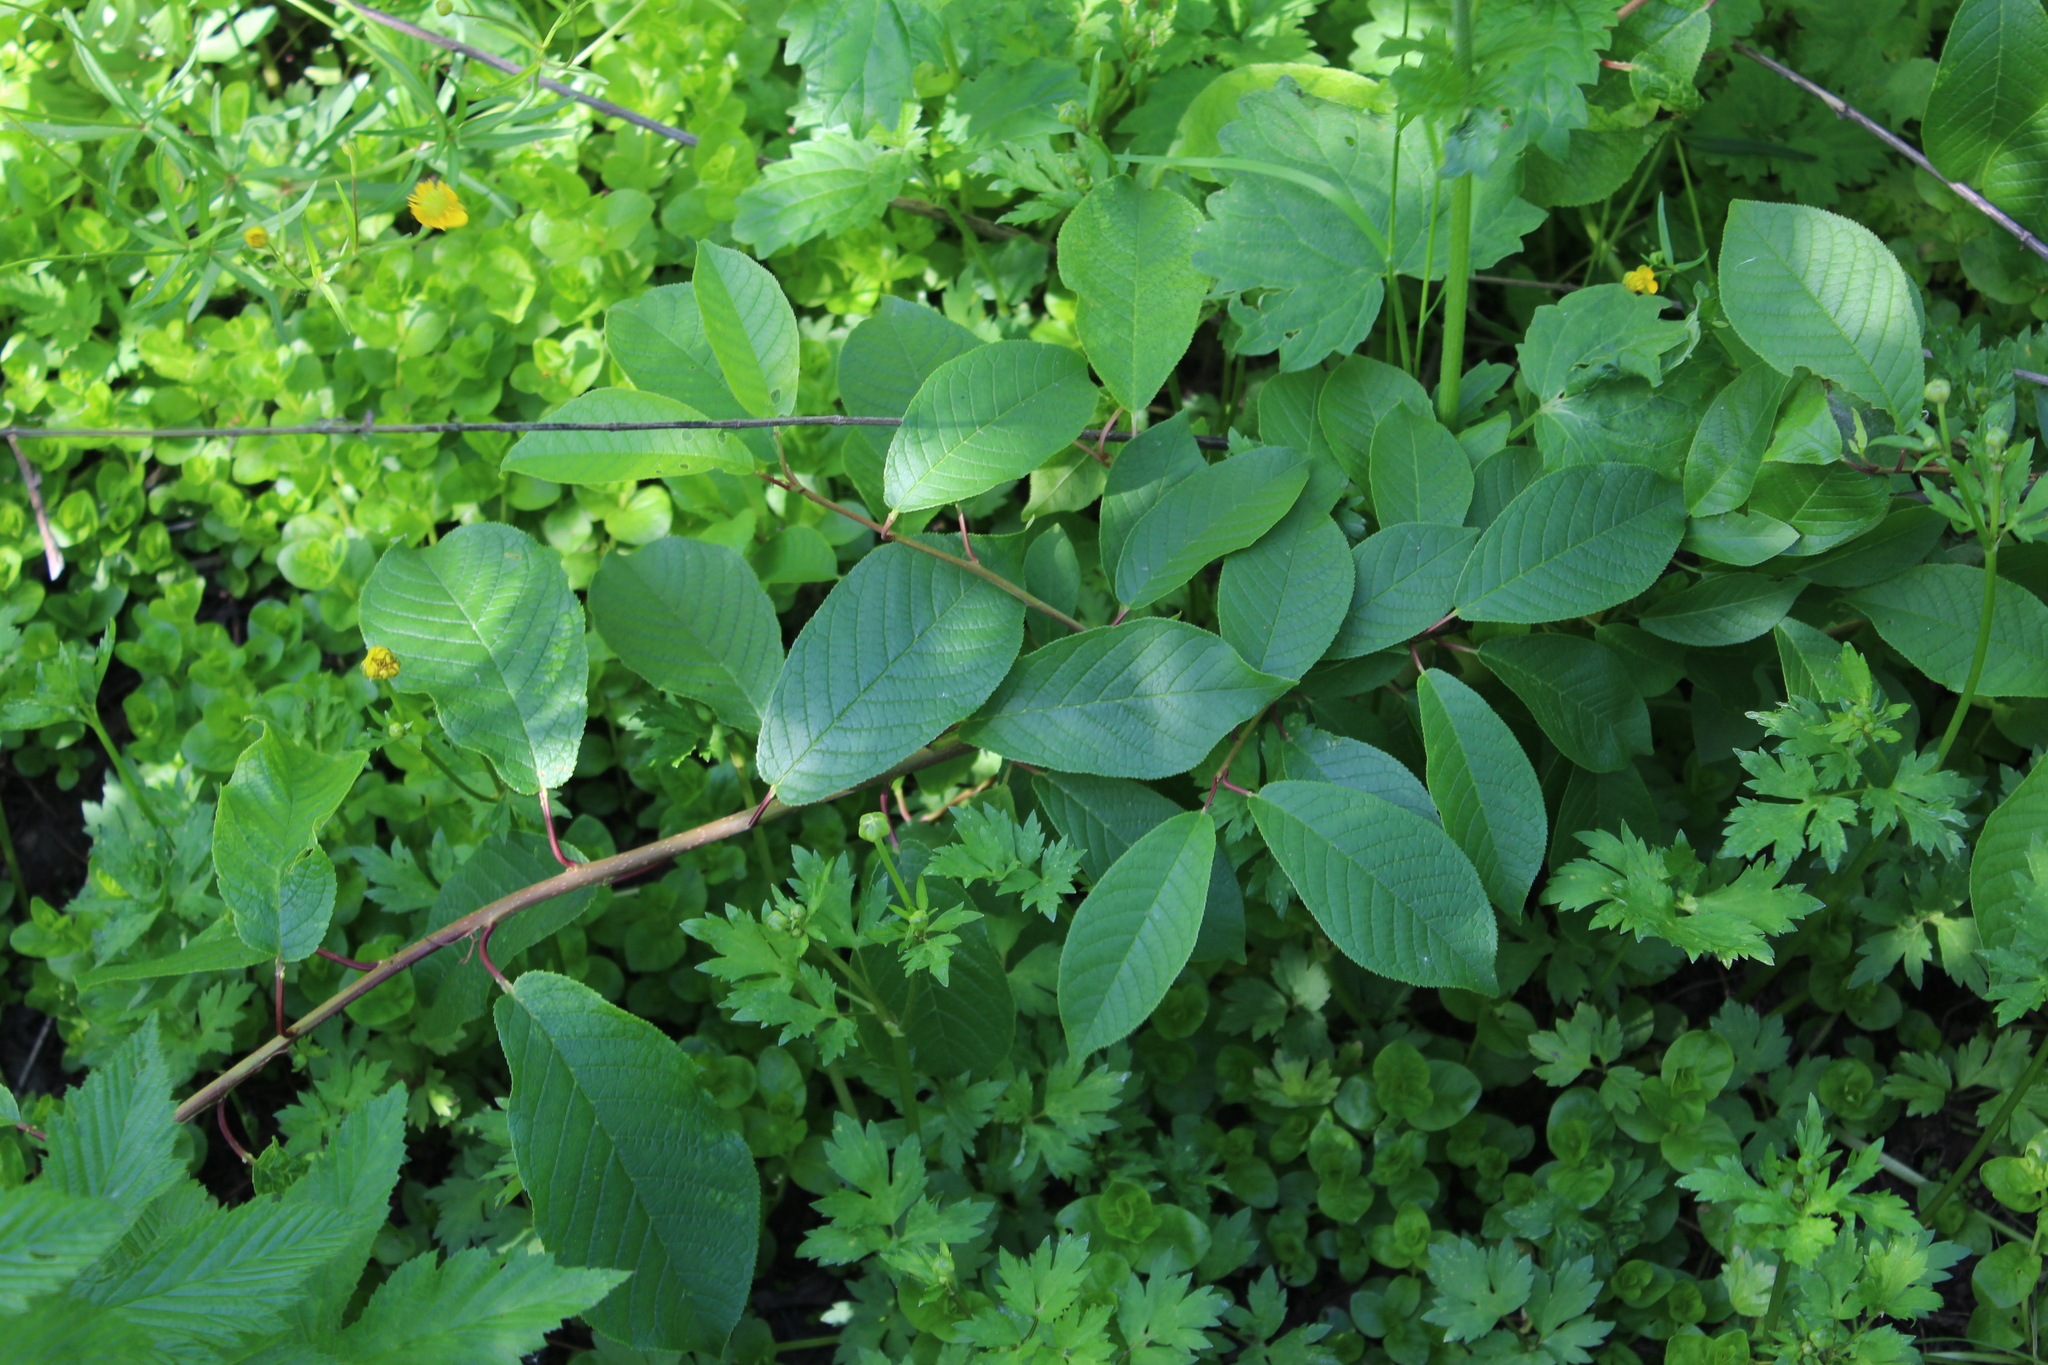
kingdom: Plantae
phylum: Tracheophyta
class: Magnoliopsida
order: Rosales
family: Rosaceae
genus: Prunus
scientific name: Prunus padus
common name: Bird cherry
